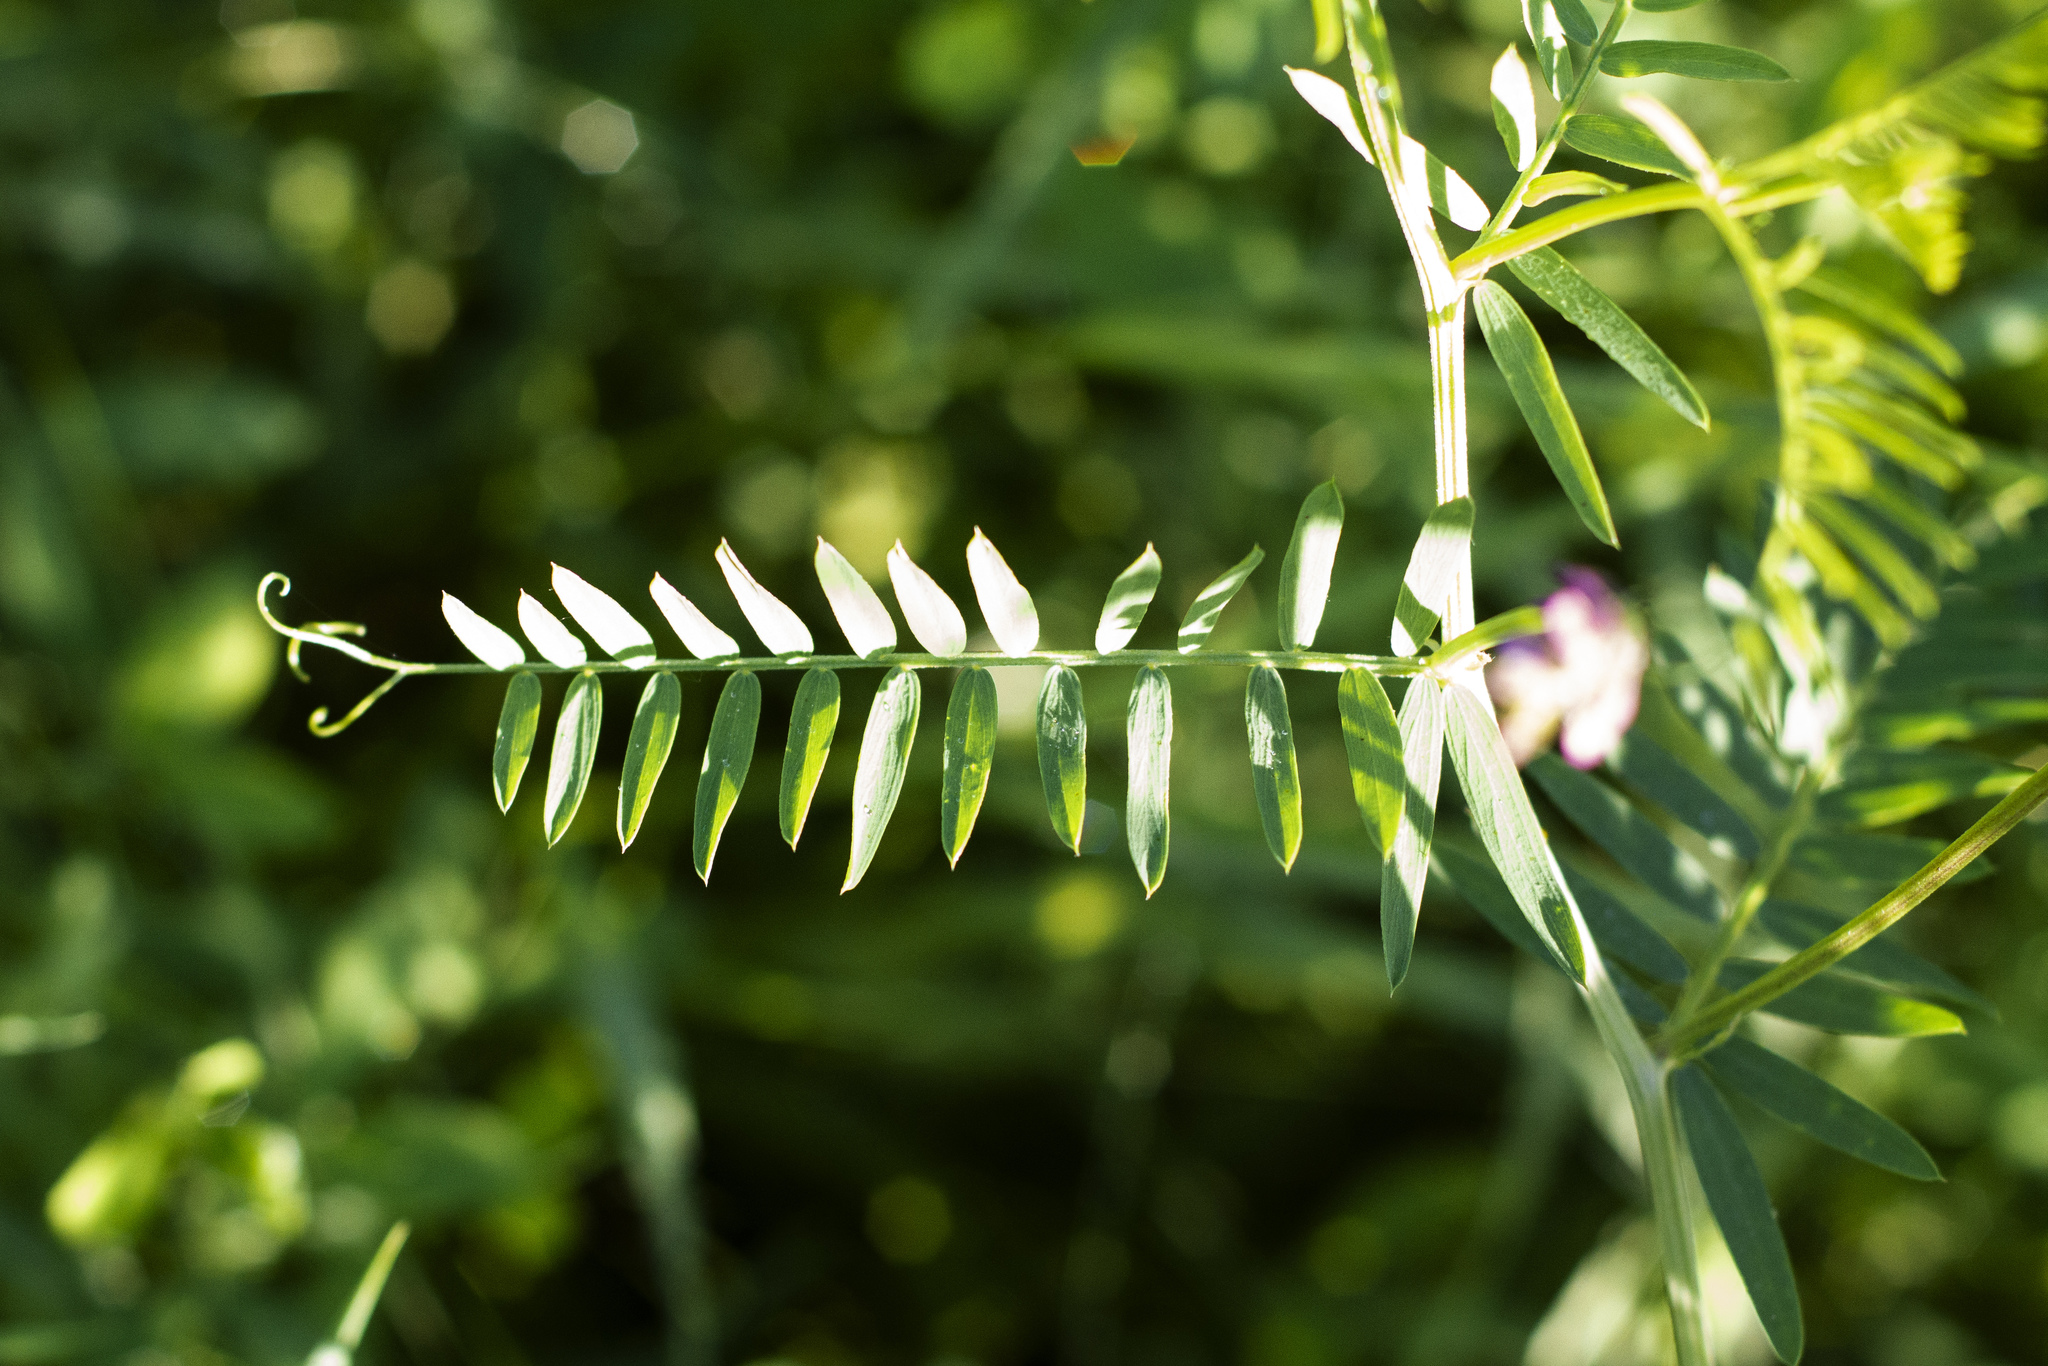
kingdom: Plantae
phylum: Tracheophyta
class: Magnoliopsida
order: Fabales
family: Fabaceae
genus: Vicia
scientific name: Vicia tenuifolia
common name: Fine-leaved vetch
